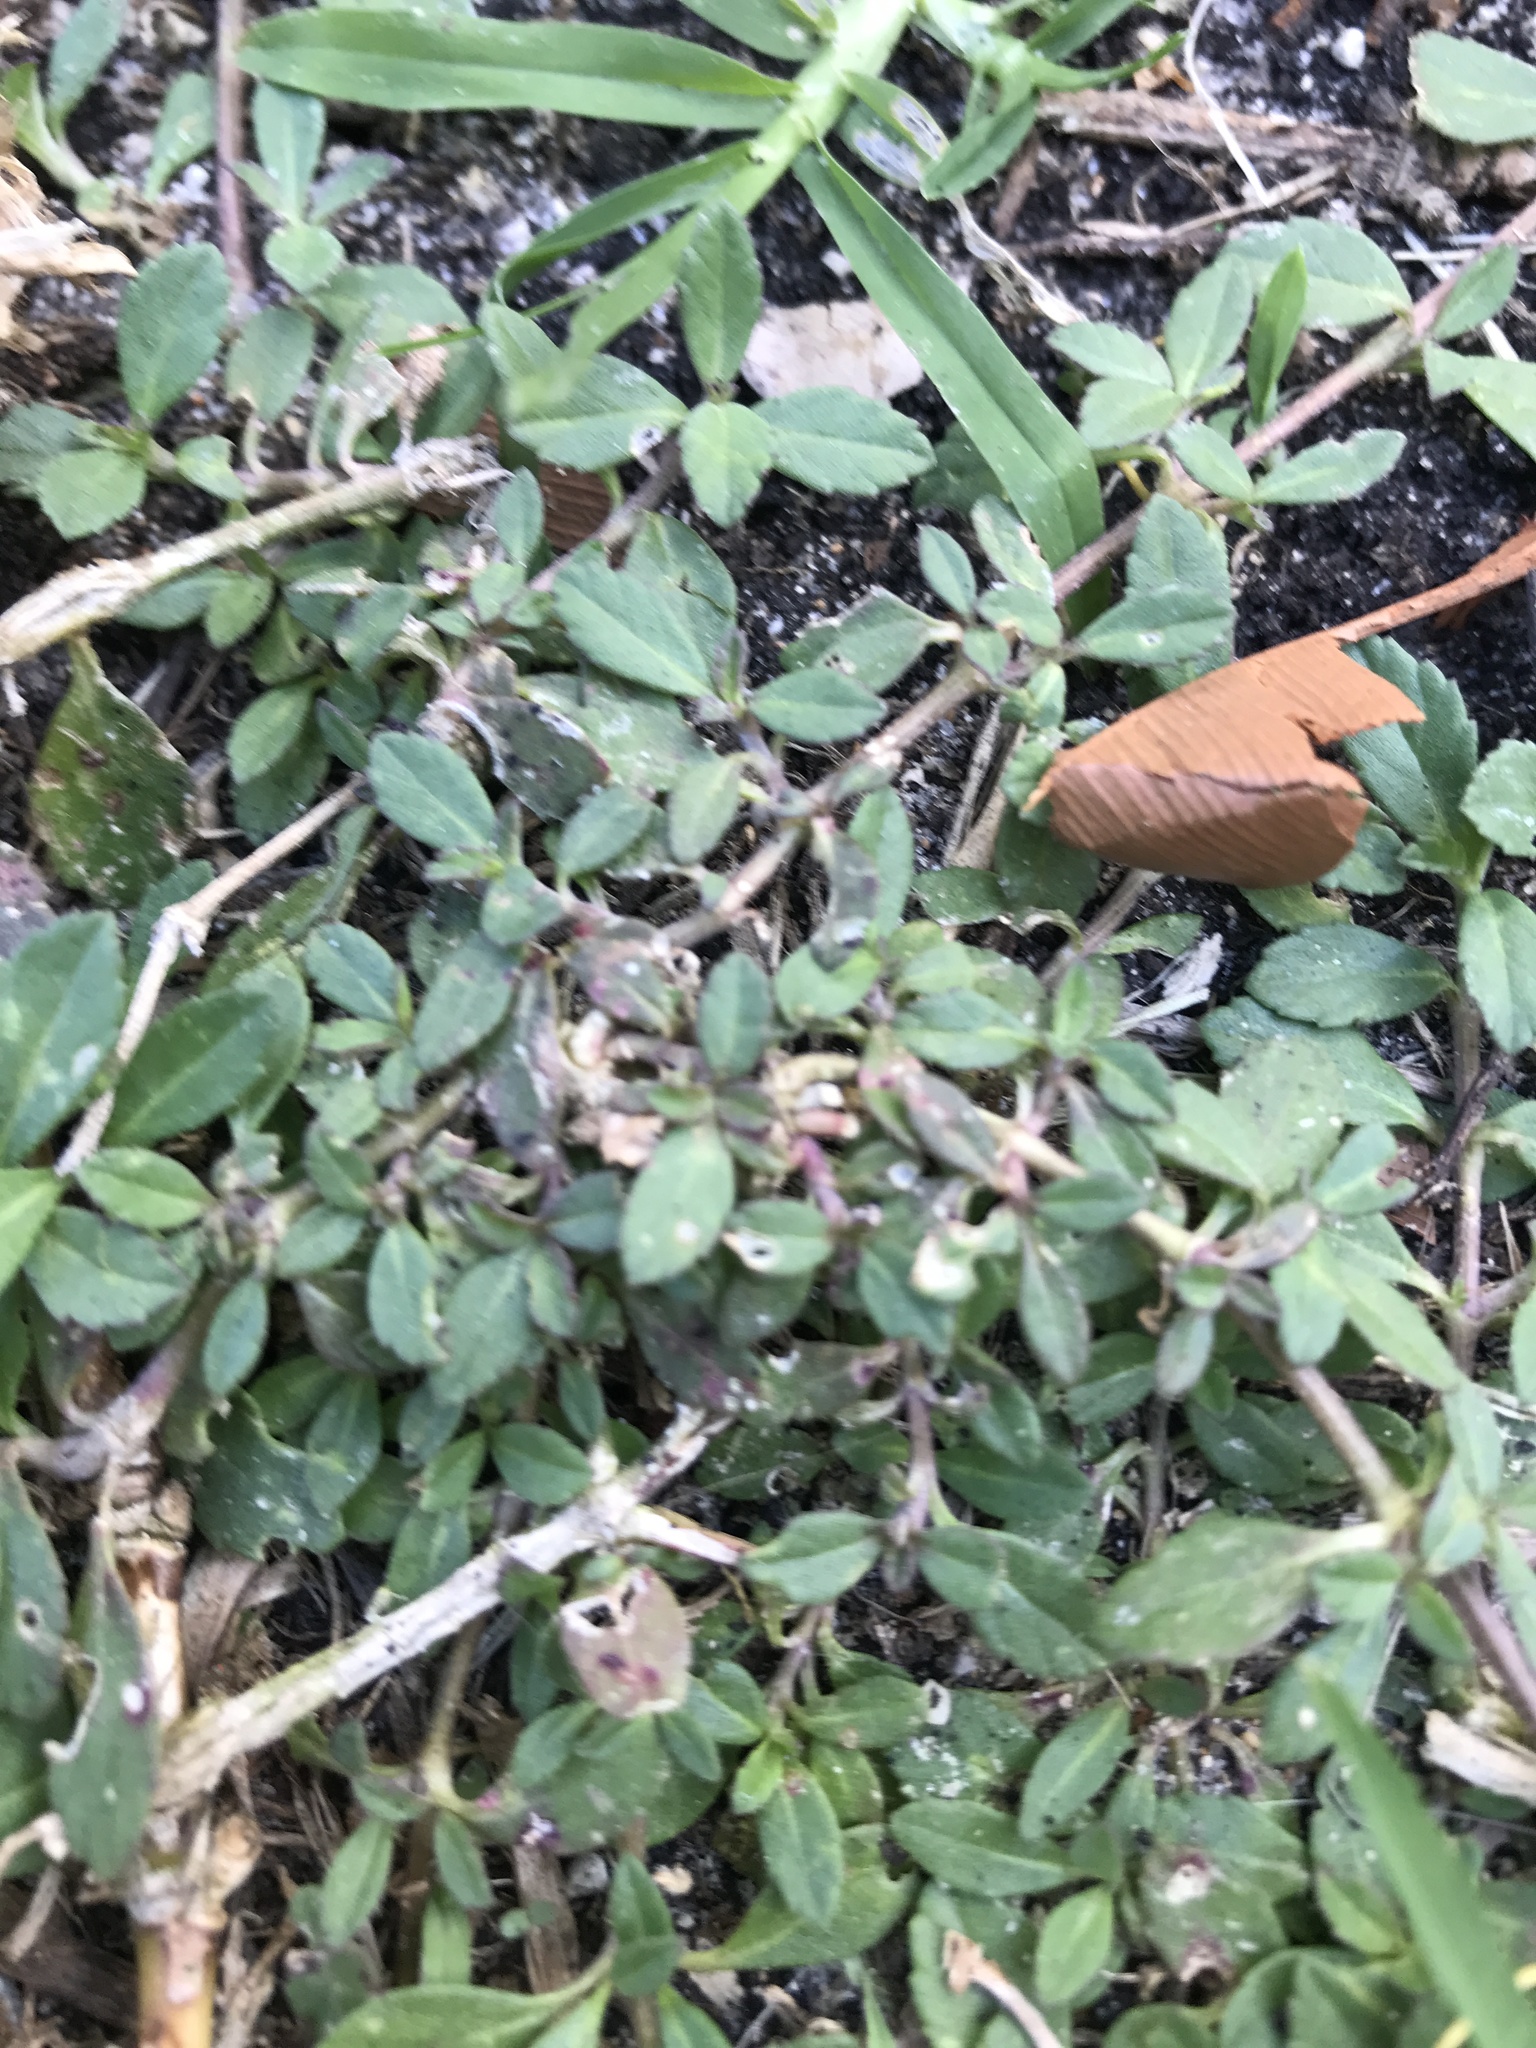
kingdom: Plantae
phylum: Tracheophyta
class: Magnoliopsida
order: Lamiales
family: Verbenaceae
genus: Phyla
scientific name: Phyla nodiflora
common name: Frogfruit
